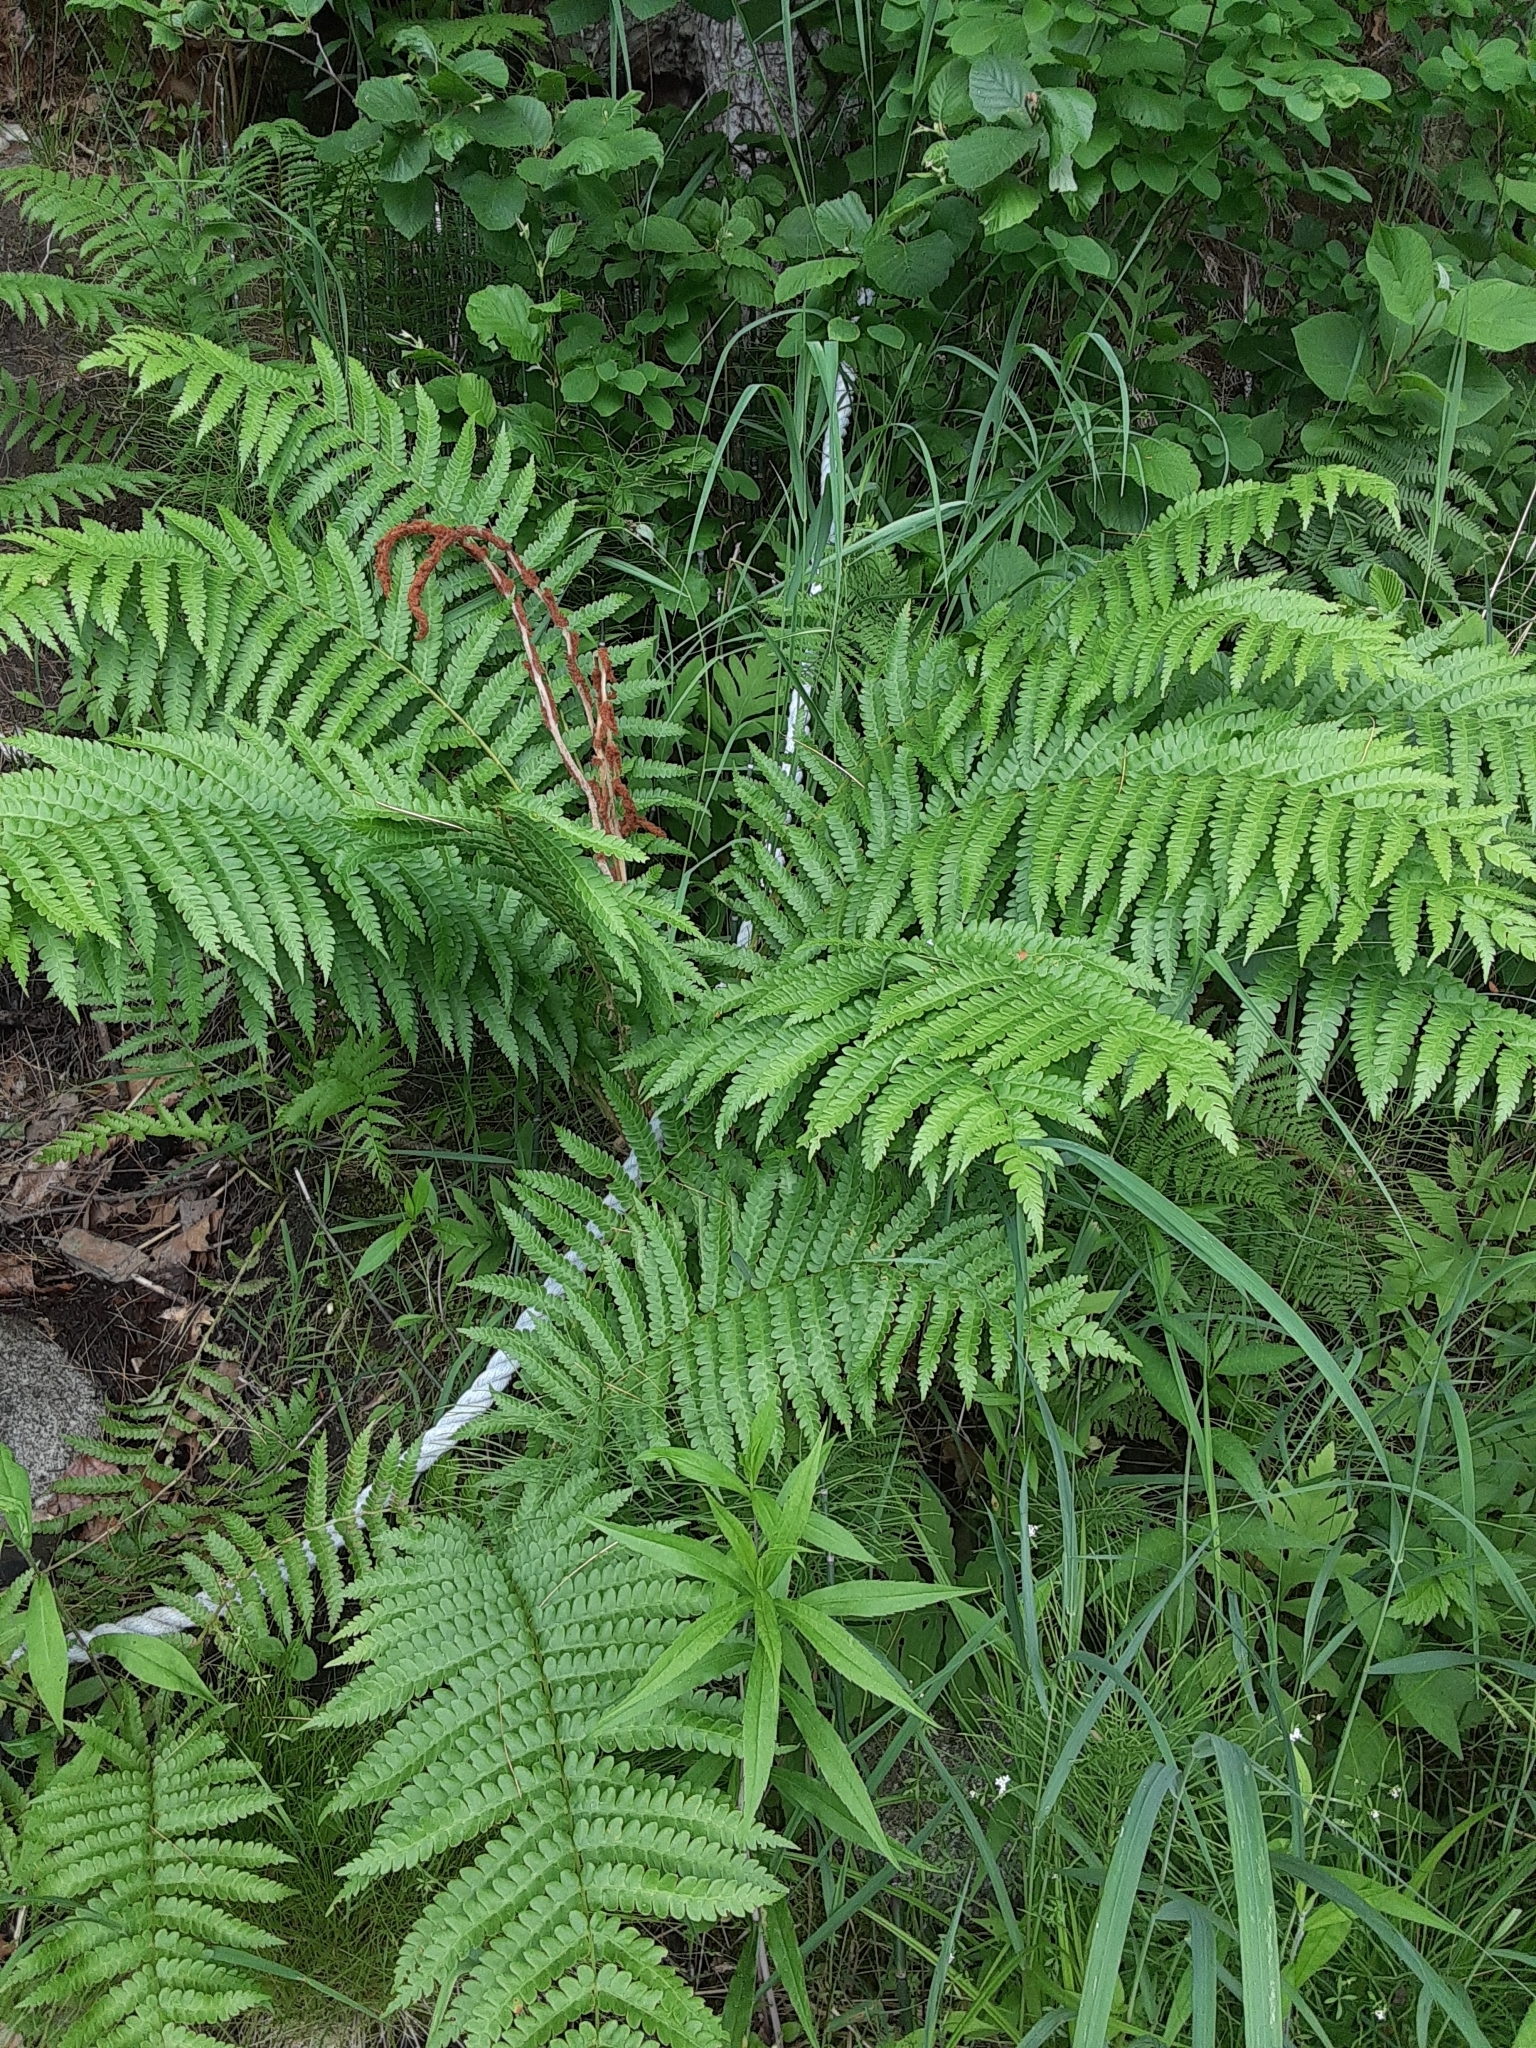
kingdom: Plantae
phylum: Tracheophyta
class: Polypodiopsida
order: Osmundales
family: Osmundaceae
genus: Osmundastrum
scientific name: Osmundastrum cinnamomeum
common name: Cinnamon fern
